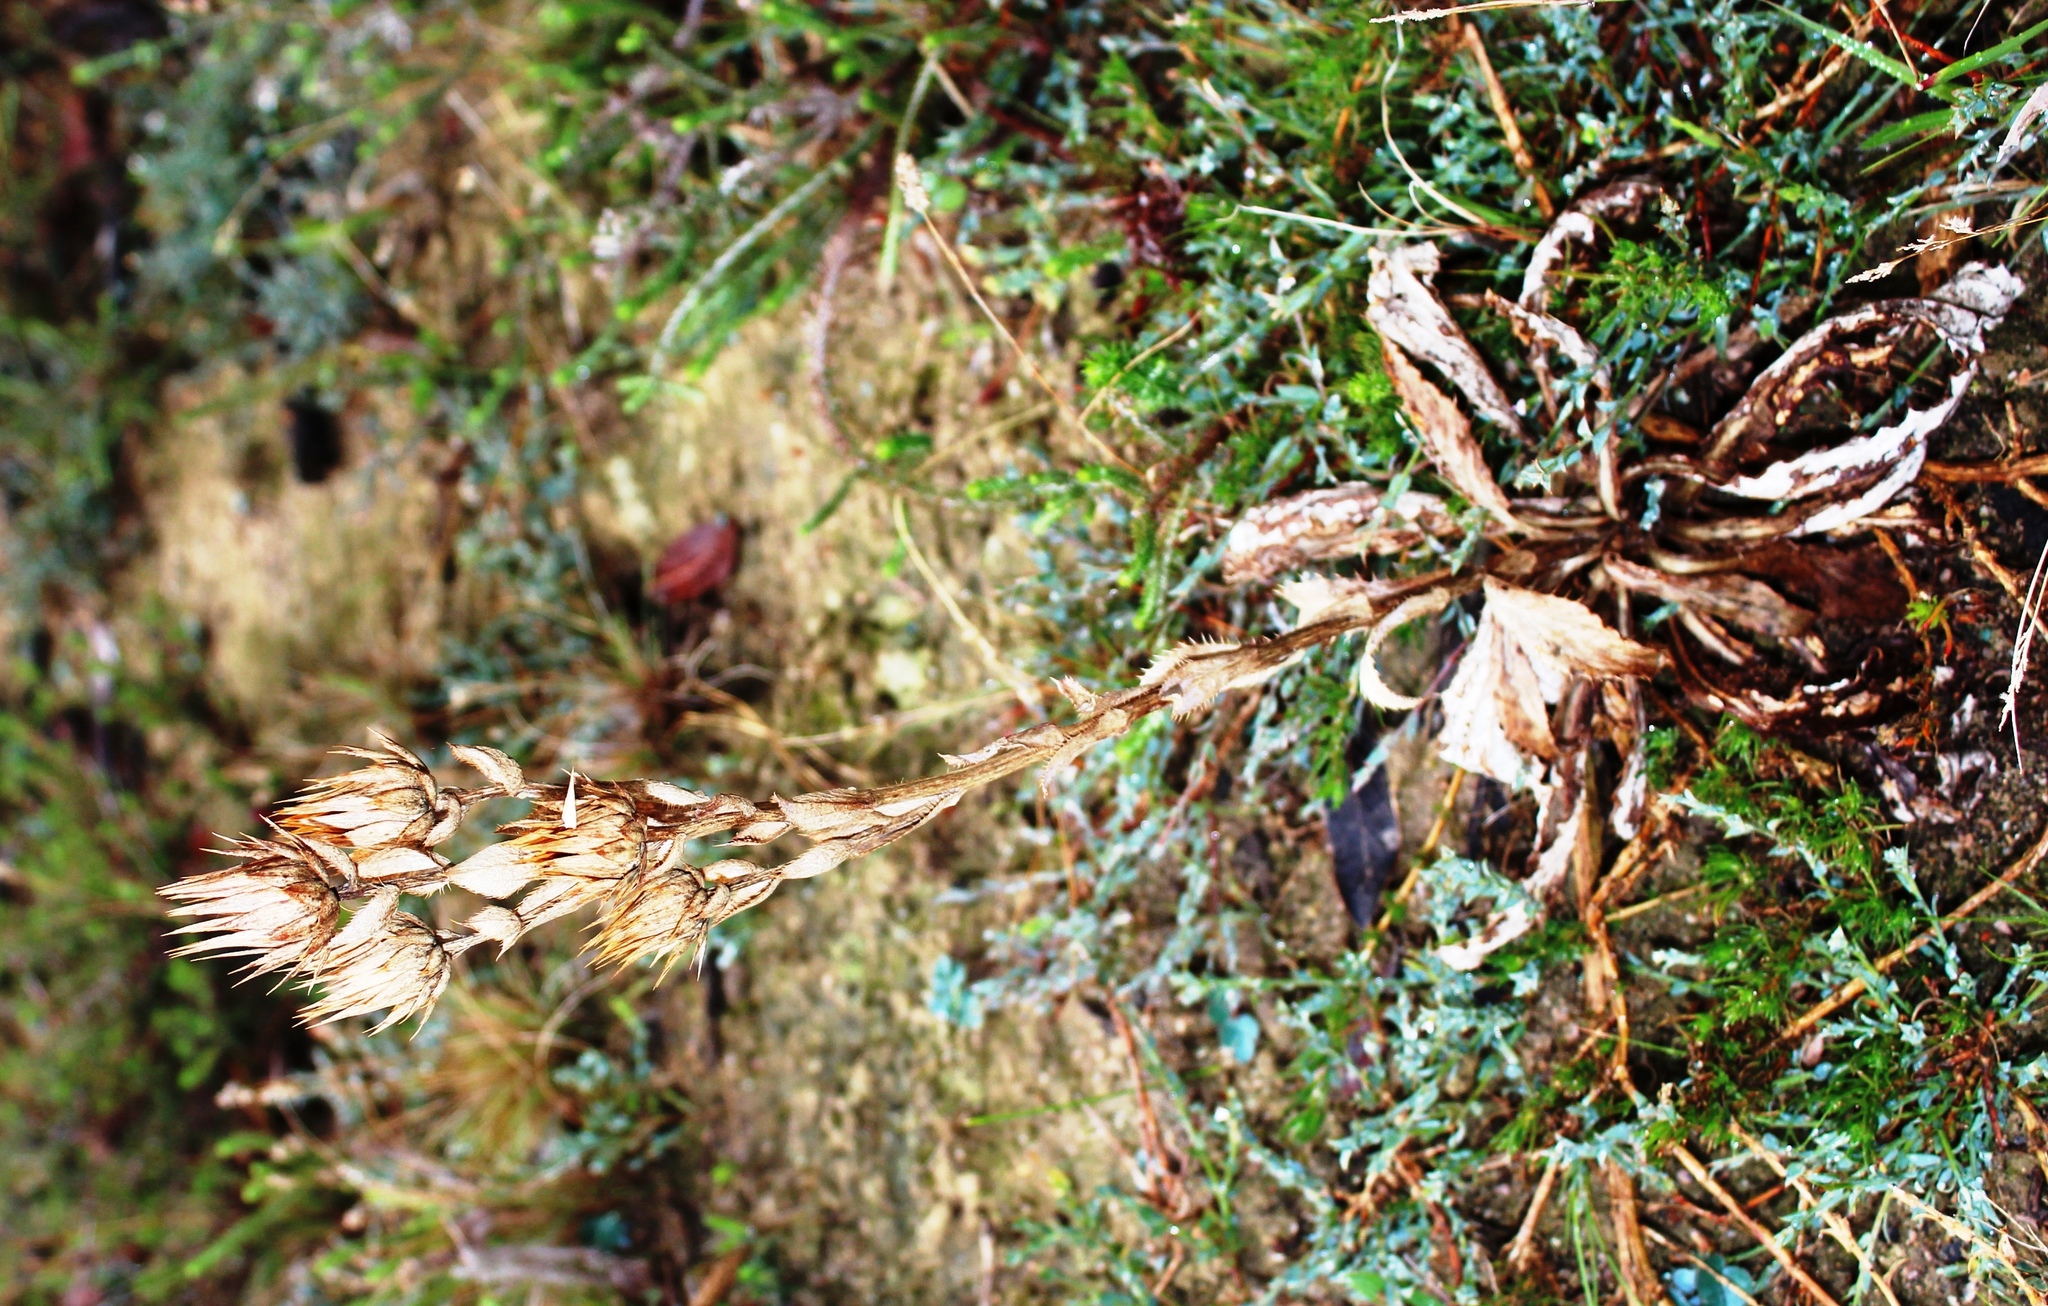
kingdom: Plantae
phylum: Tracheophyta
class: Magnoliopsida
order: Asterales
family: Asteraceae
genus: Berkheya
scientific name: Berkheya armata
